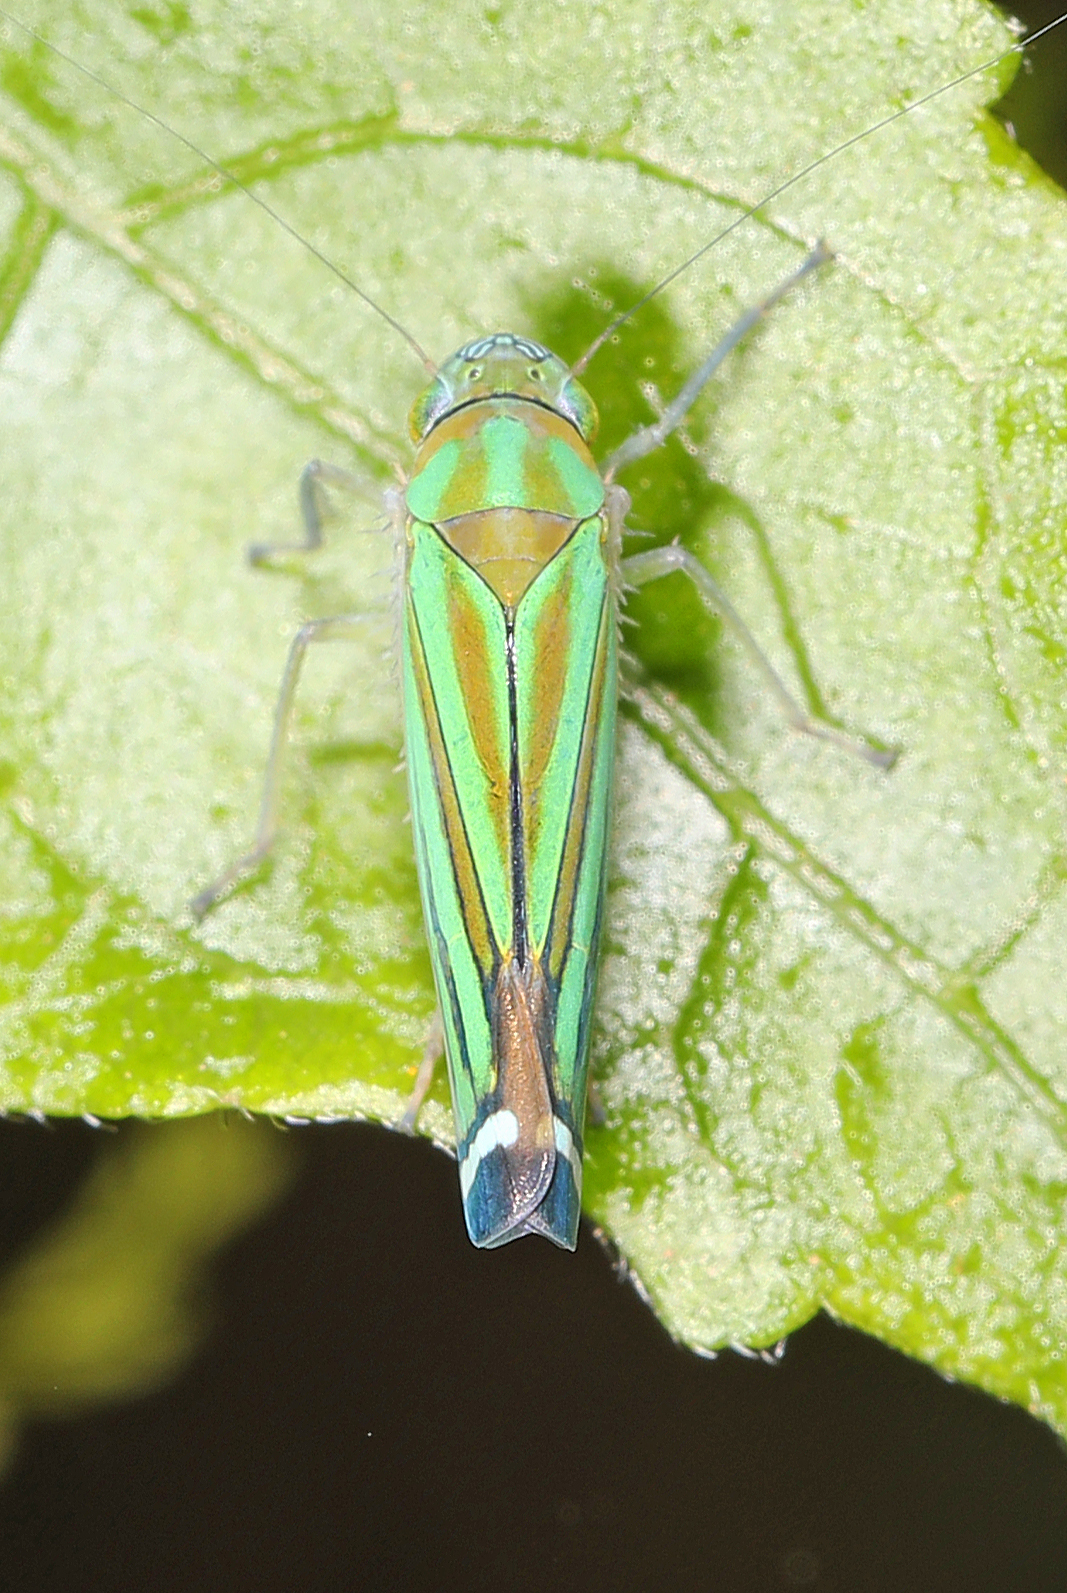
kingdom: Animalia
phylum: Arthropoda
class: Insecta
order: Hemiptera
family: Cicadellidae
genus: Sibovia
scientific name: Sibovia prodigiosa
